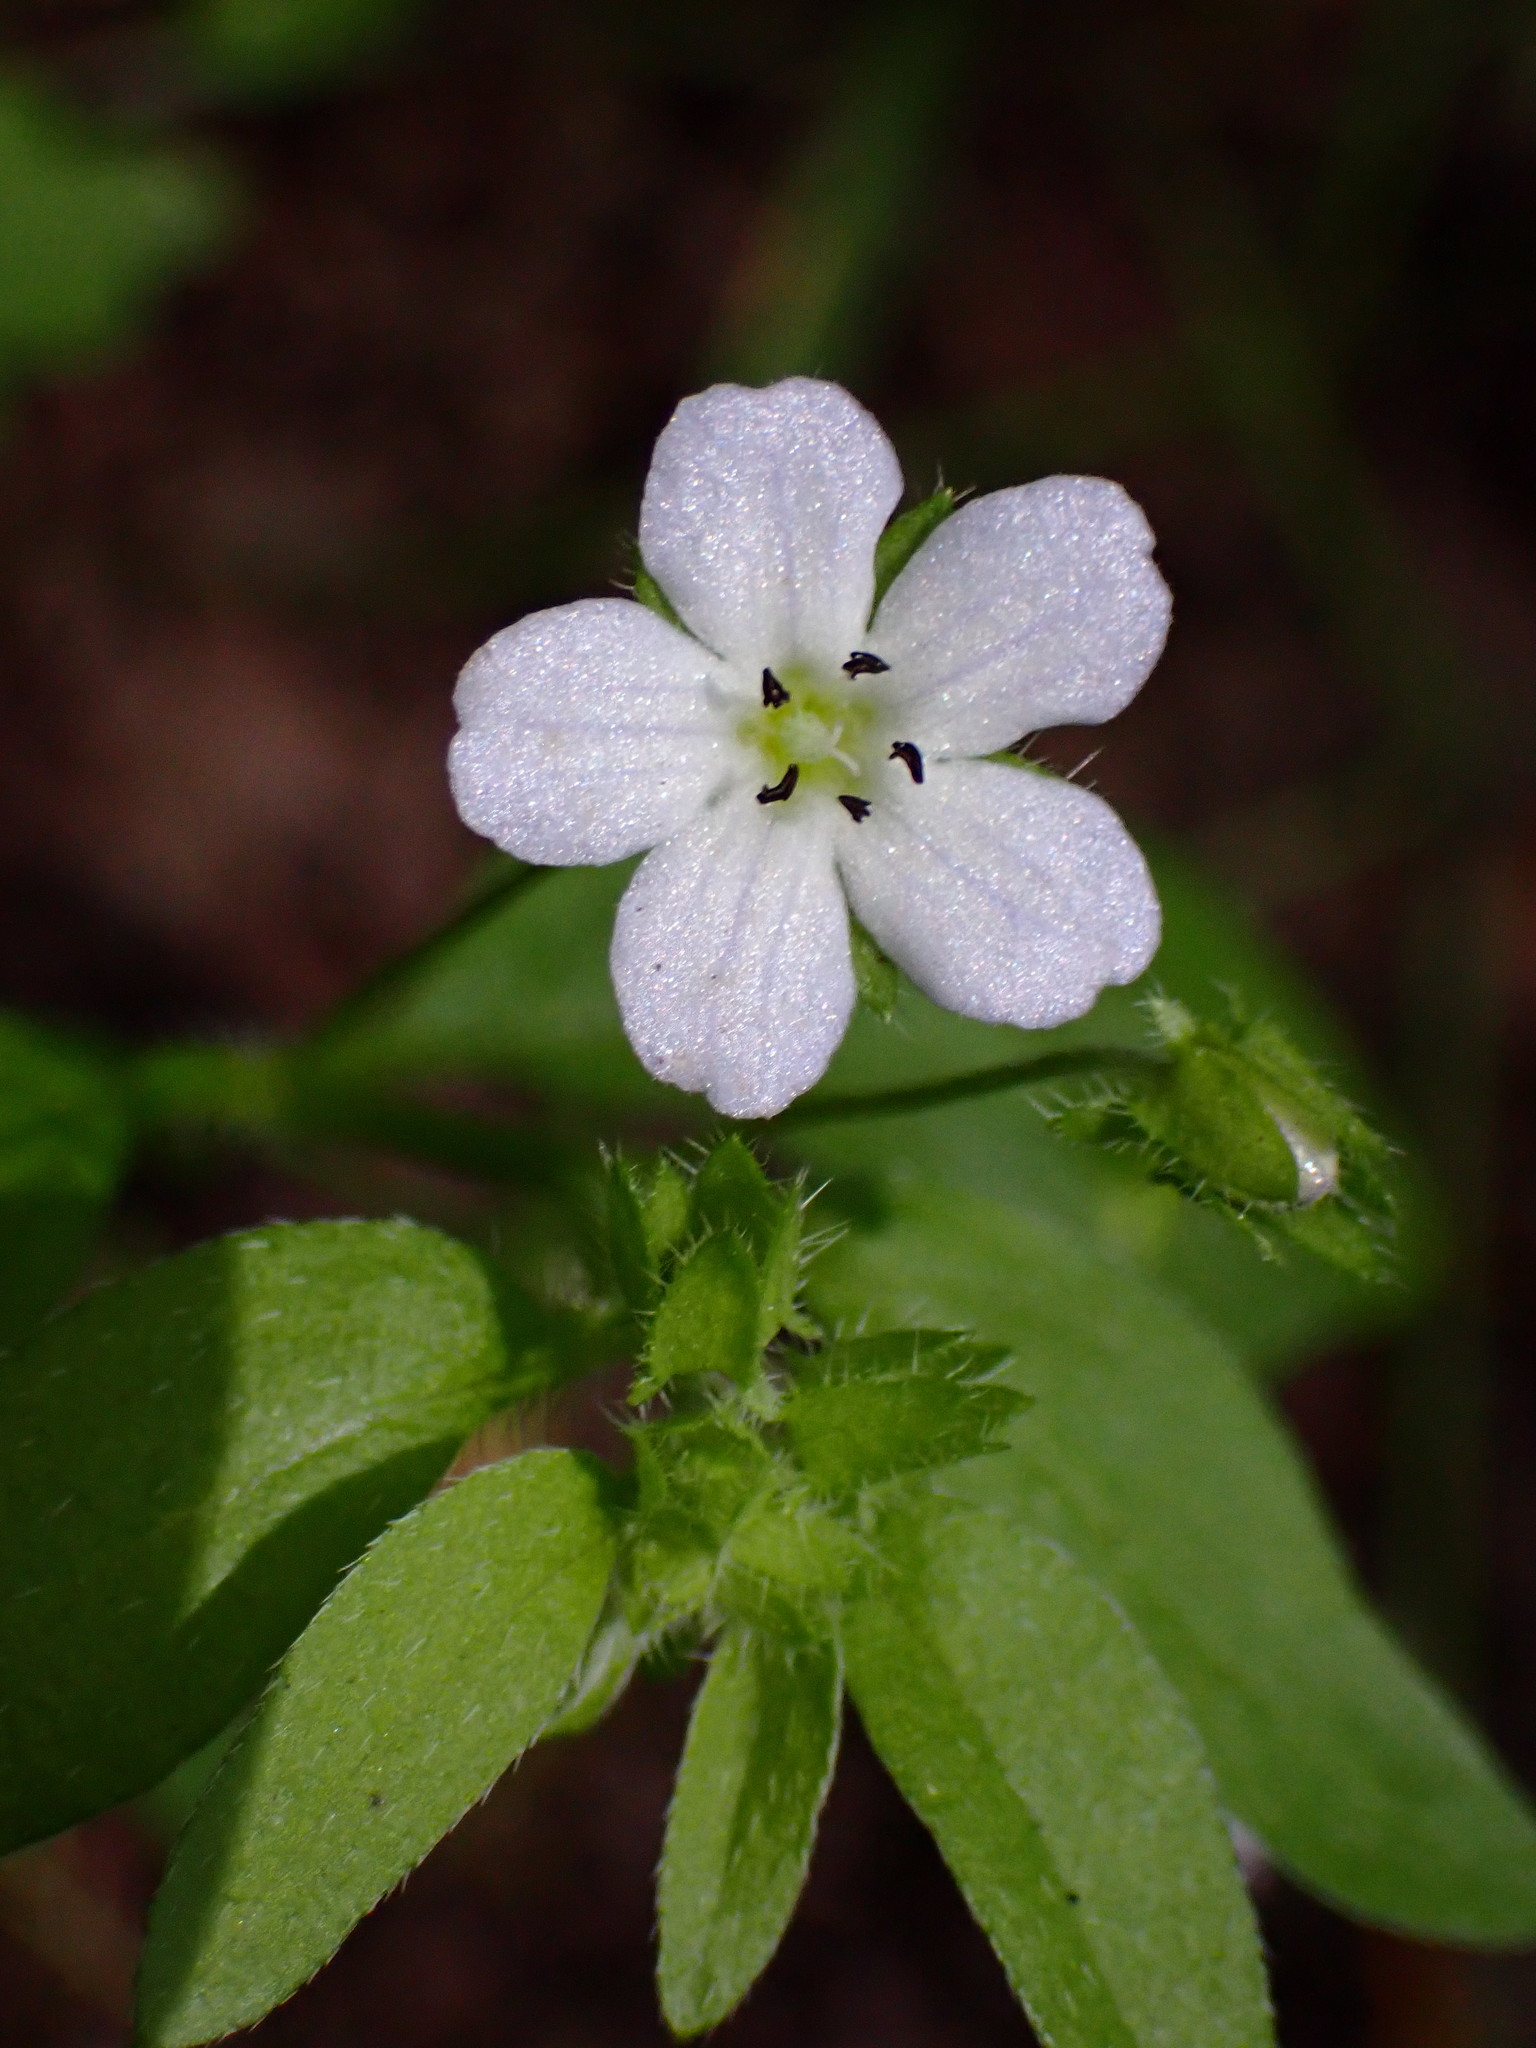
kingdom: Plantae
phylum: Tracheophyta
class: Magnoliopsida
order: Boraginales
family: Hydrophyllaceae
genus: Nemophila
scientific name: Nemophila heterophylla
